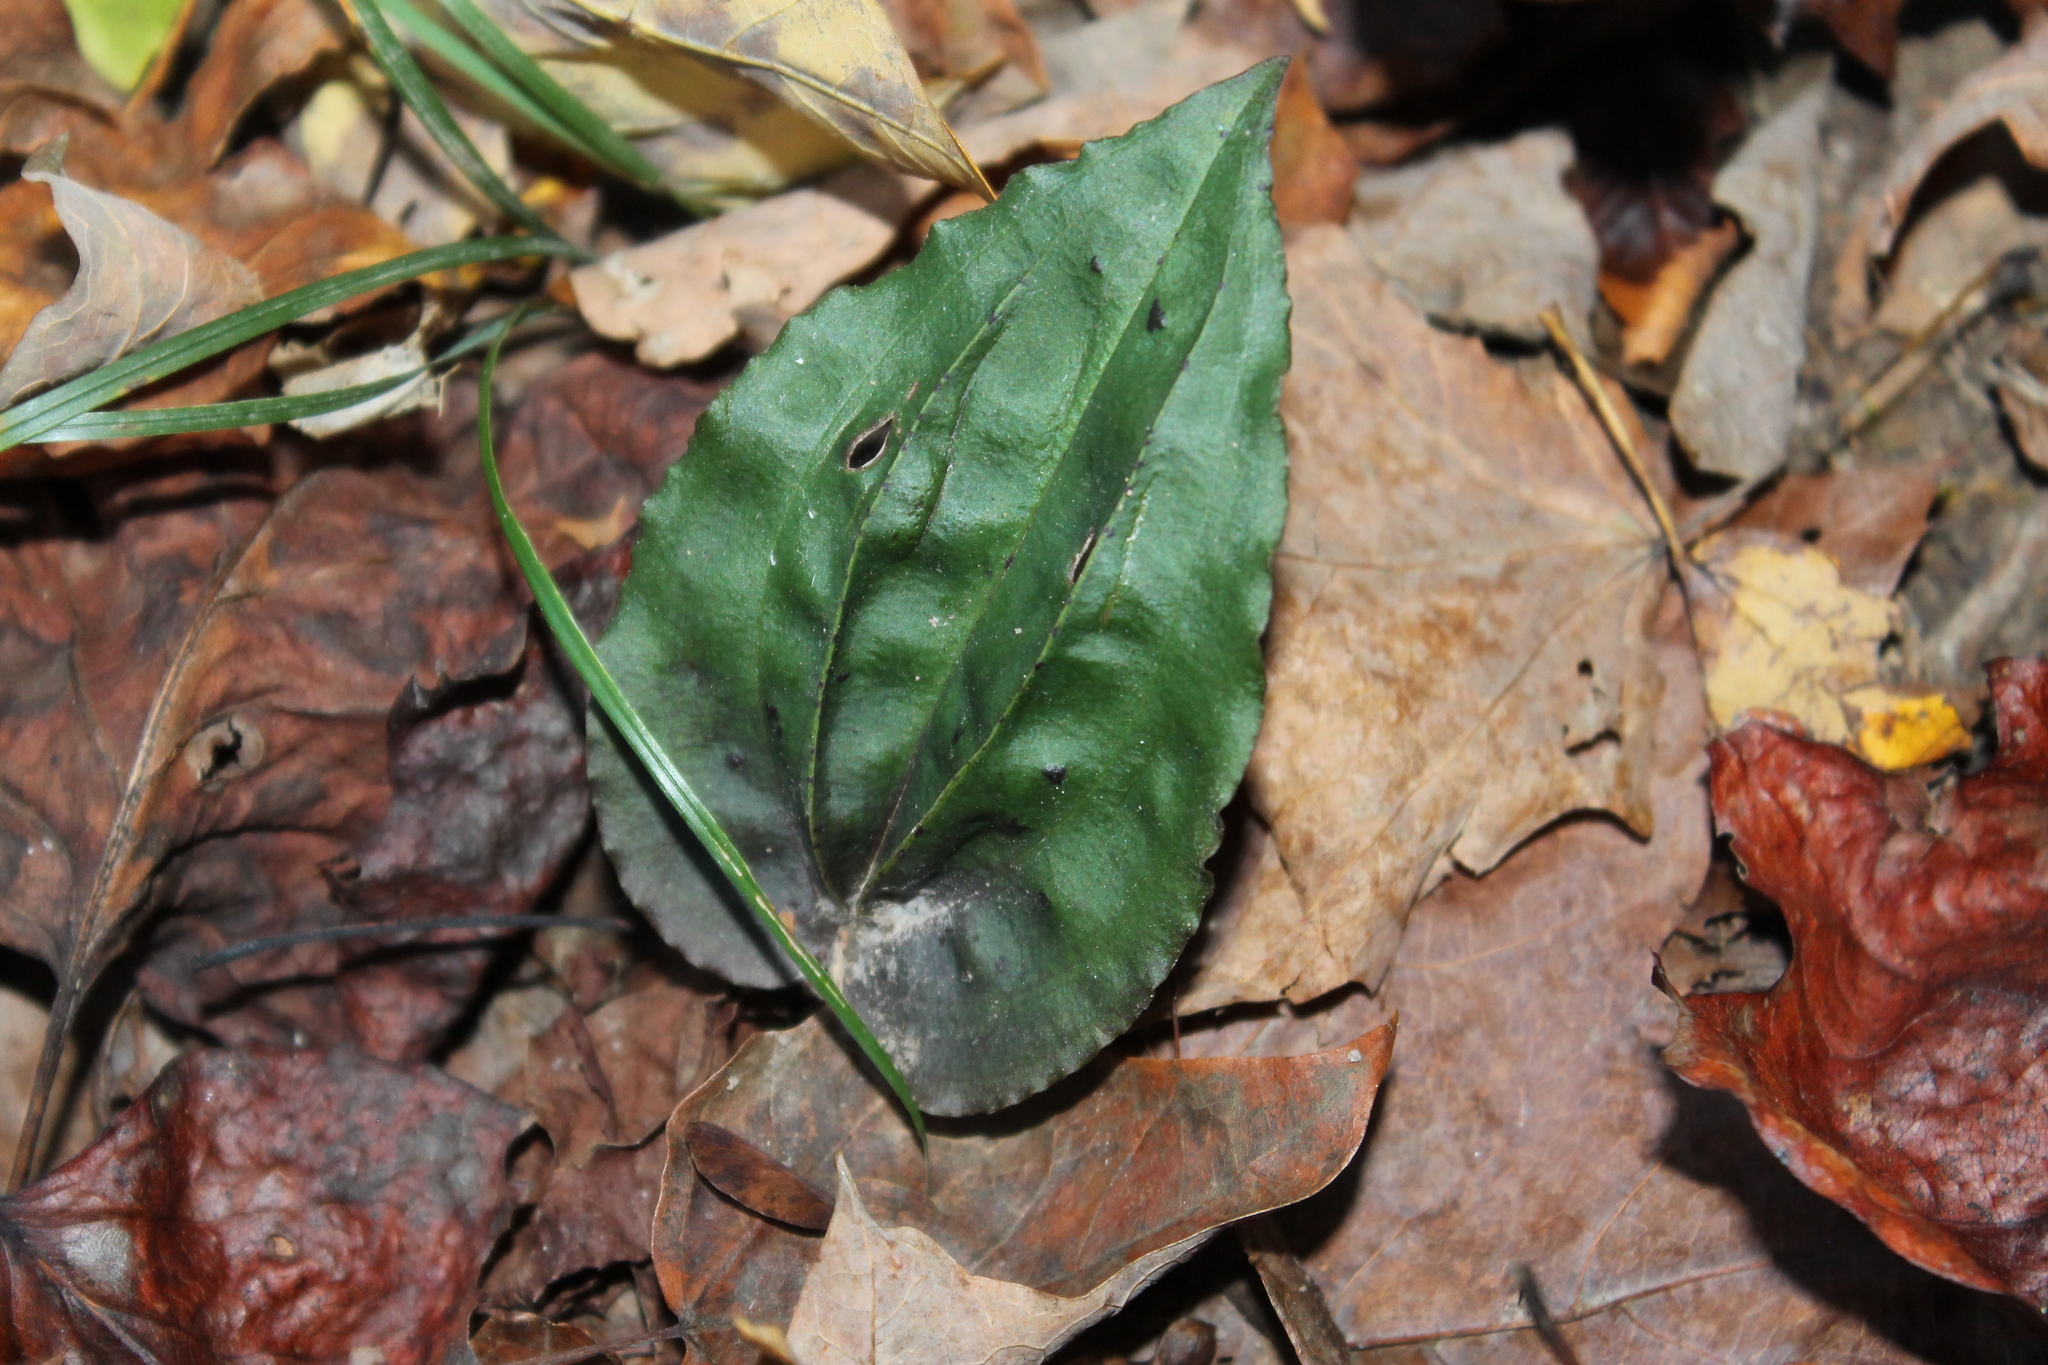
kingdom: Plantae
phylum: Tracheophyta
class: Liliopsida
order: Asparagales
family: Orchidaceae
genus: Tipularia
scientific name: Tipularia discolor
